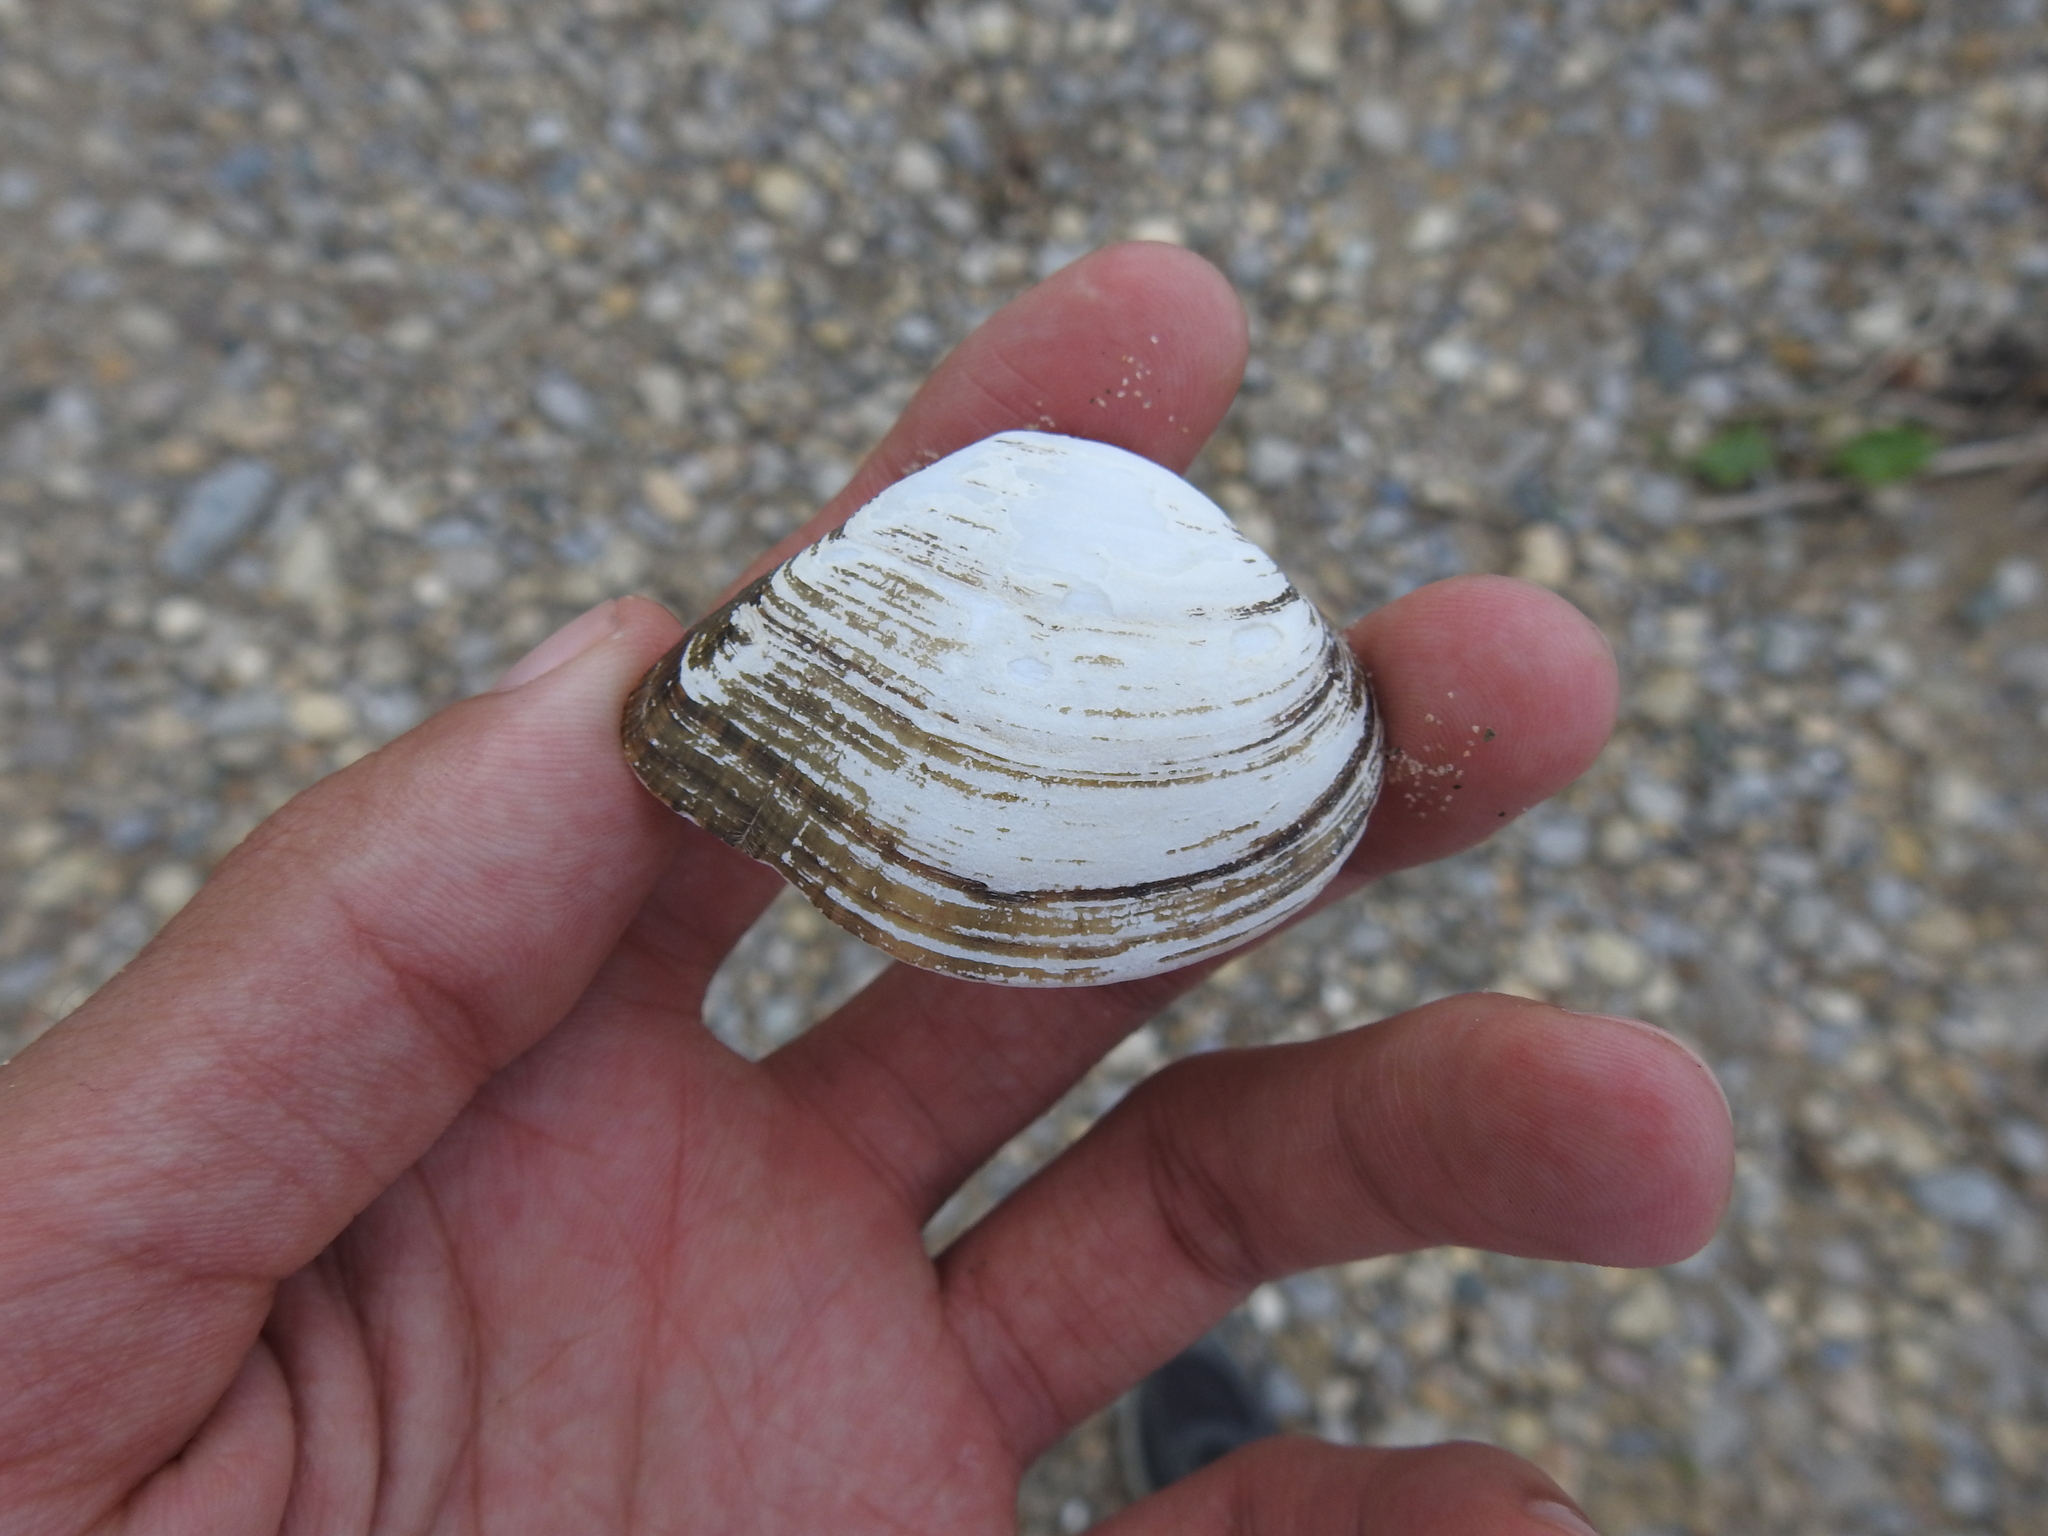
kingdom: Animalia
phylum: Mollusca
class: Bivalvia
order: Unionida
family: Unionidae
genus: Truncilla
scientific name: Truncilla truncata
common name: Deertoe
